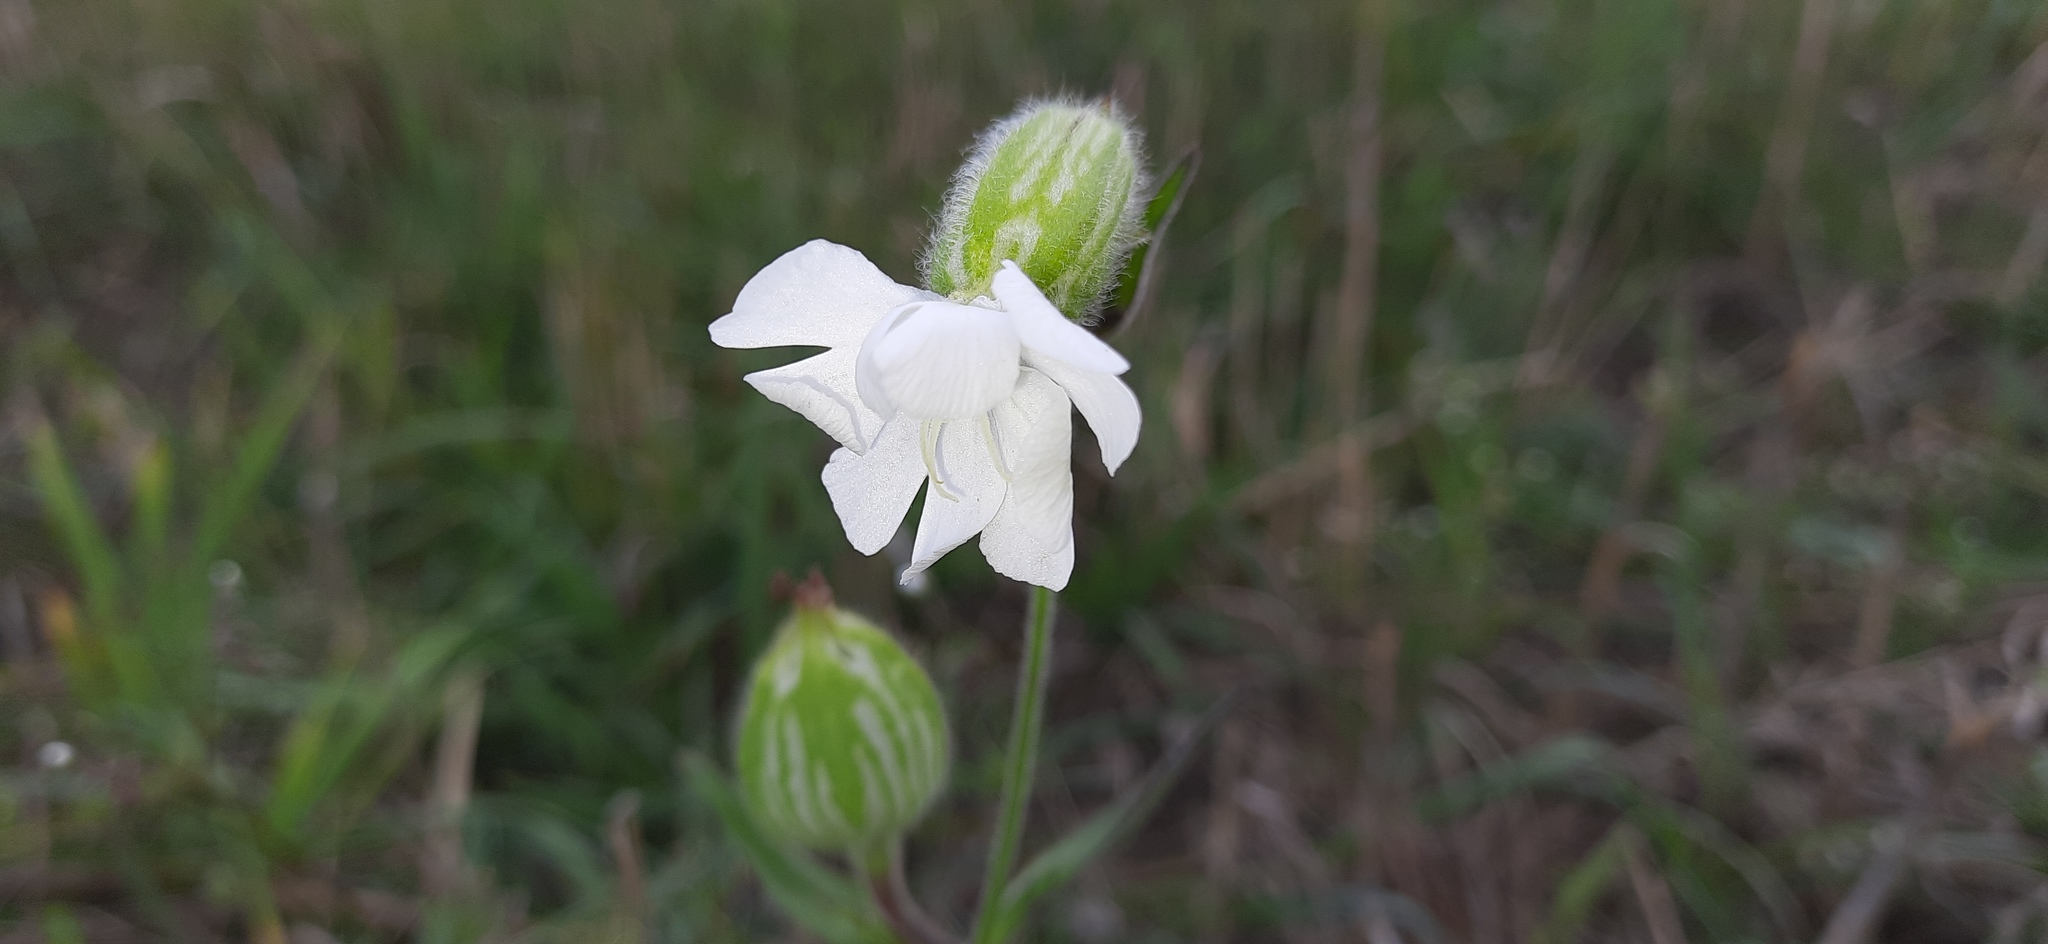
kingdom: Plantae
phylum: Tracheophyta
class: Magnoliopsida
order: Caryophyllales
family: Caryophyllaceae
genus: Silene
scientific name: Silene latifolia
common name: White campion
